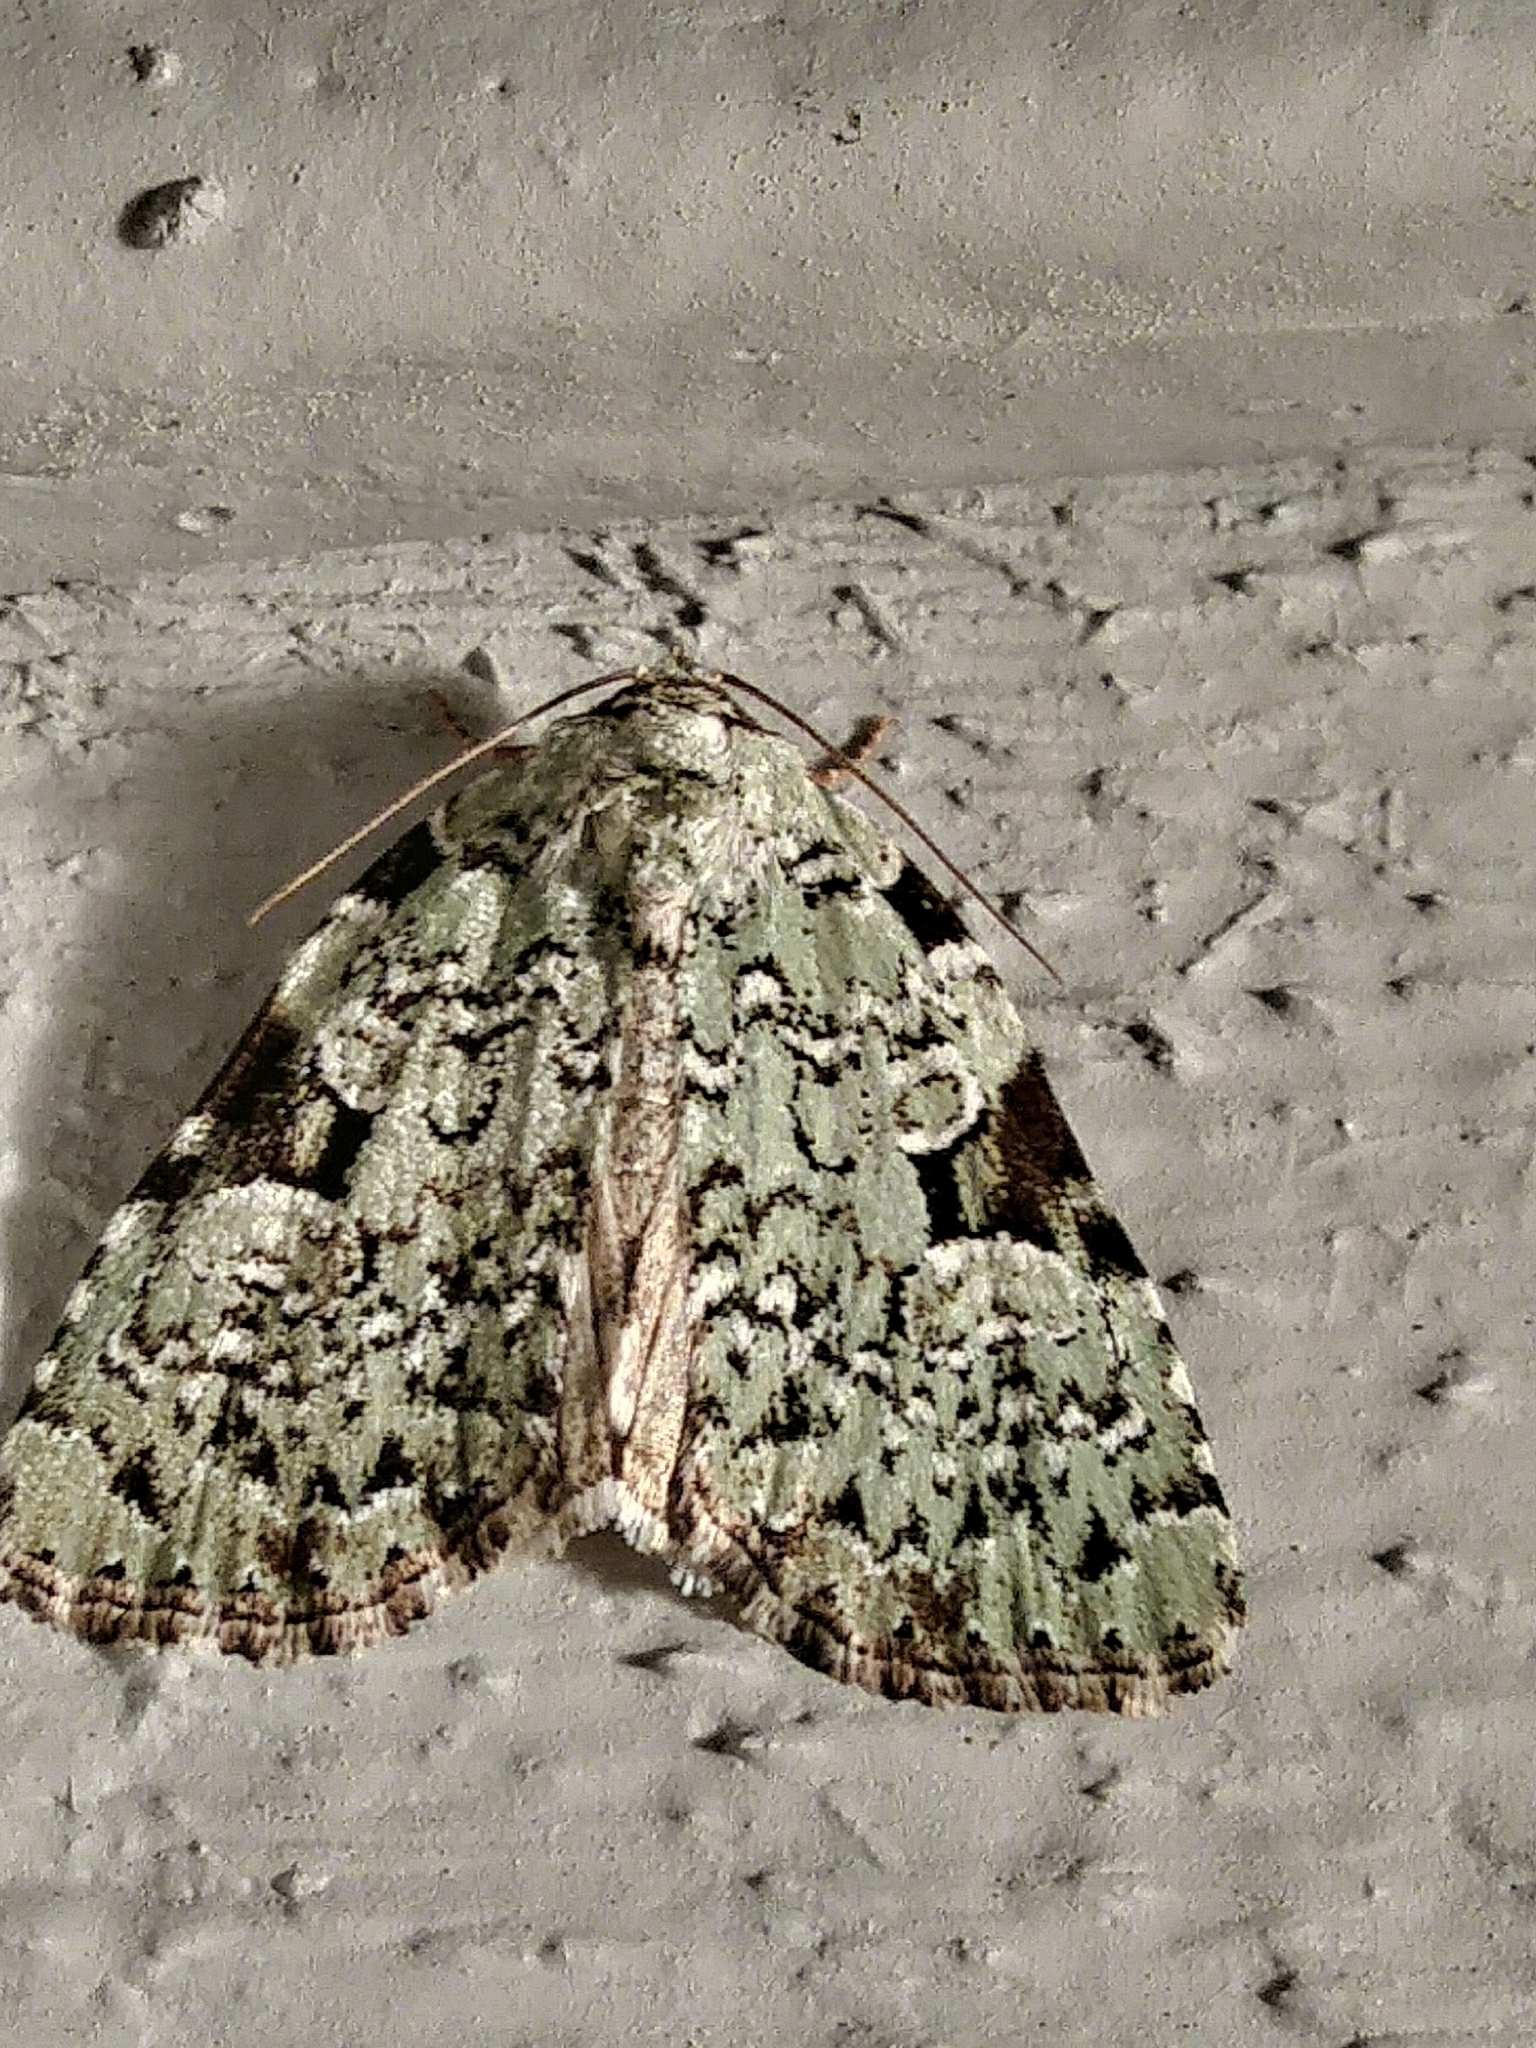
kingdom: Animalia
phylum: Arthropoda
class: Insecta
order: Lepidoptera
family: Noctuidae
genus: Leuconycta
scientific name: Leuconycta diphteroides
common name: Green leuconycta moth
